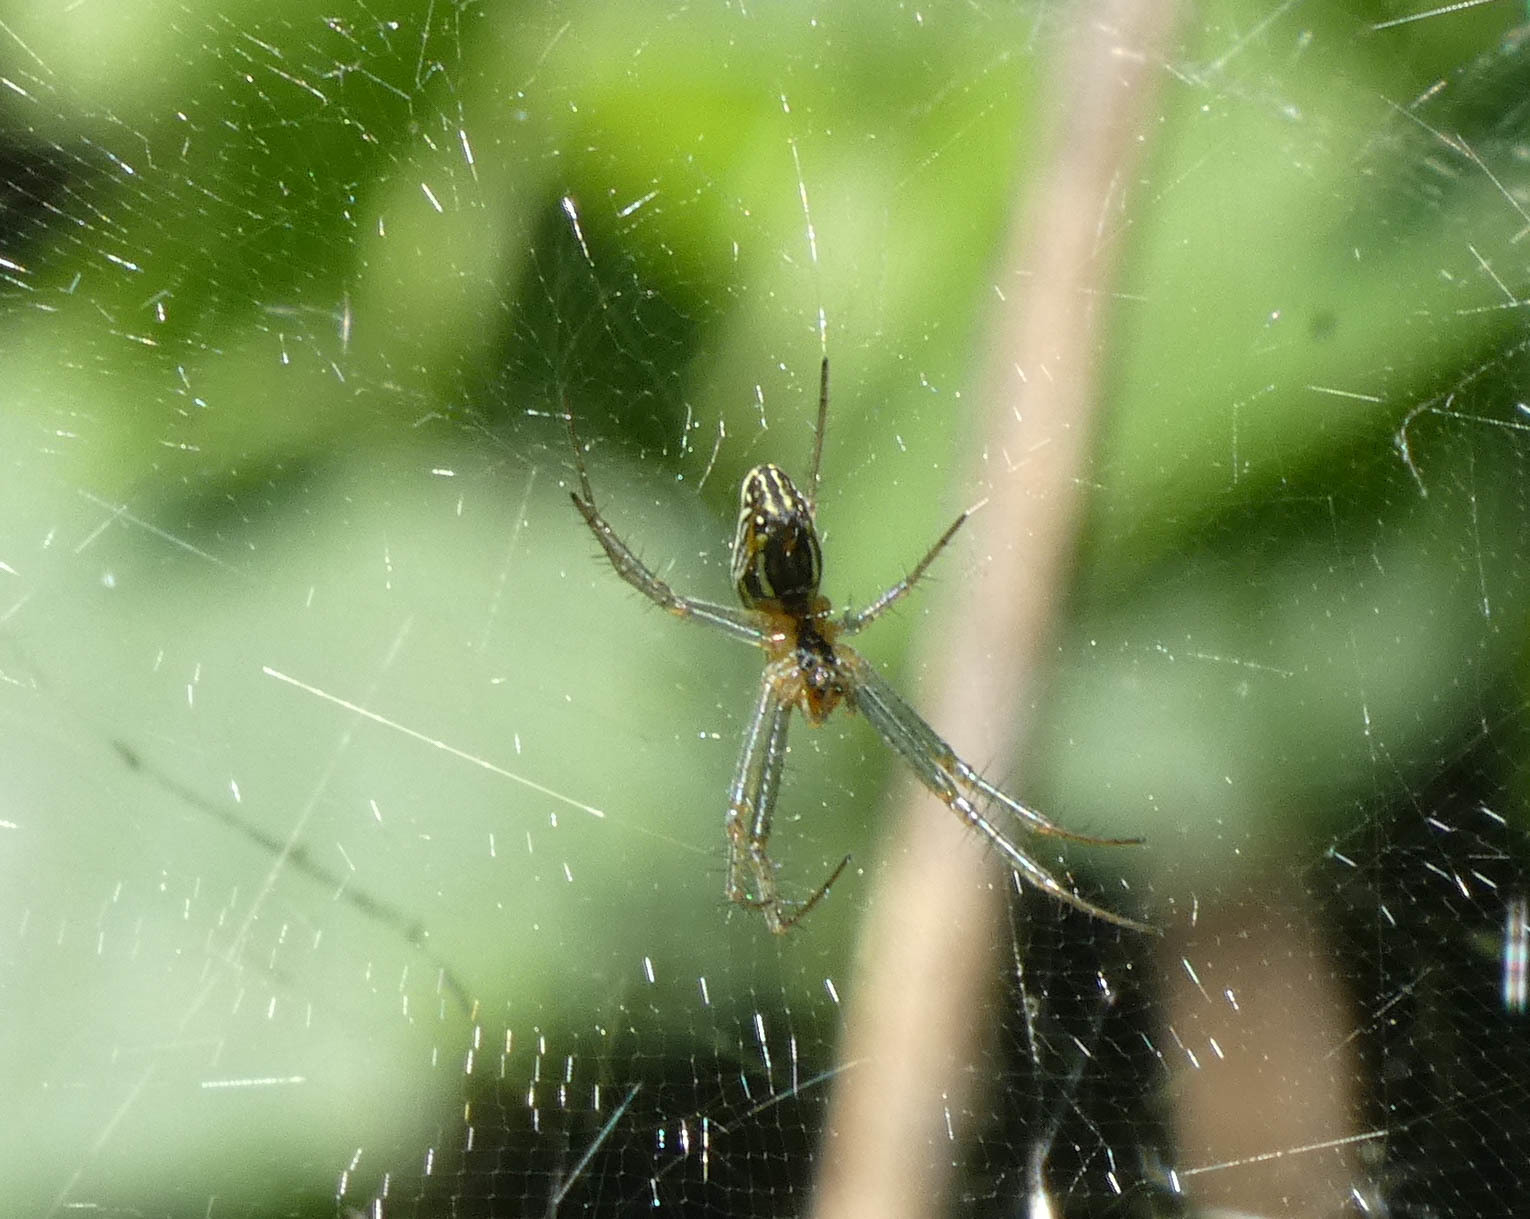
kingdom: Animalia
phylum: Arthropoda
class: Arachnida
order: Araneae
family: Araneidae
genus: Mecynogea
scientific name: Mecynogea lemniscata
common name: Orb weavers
